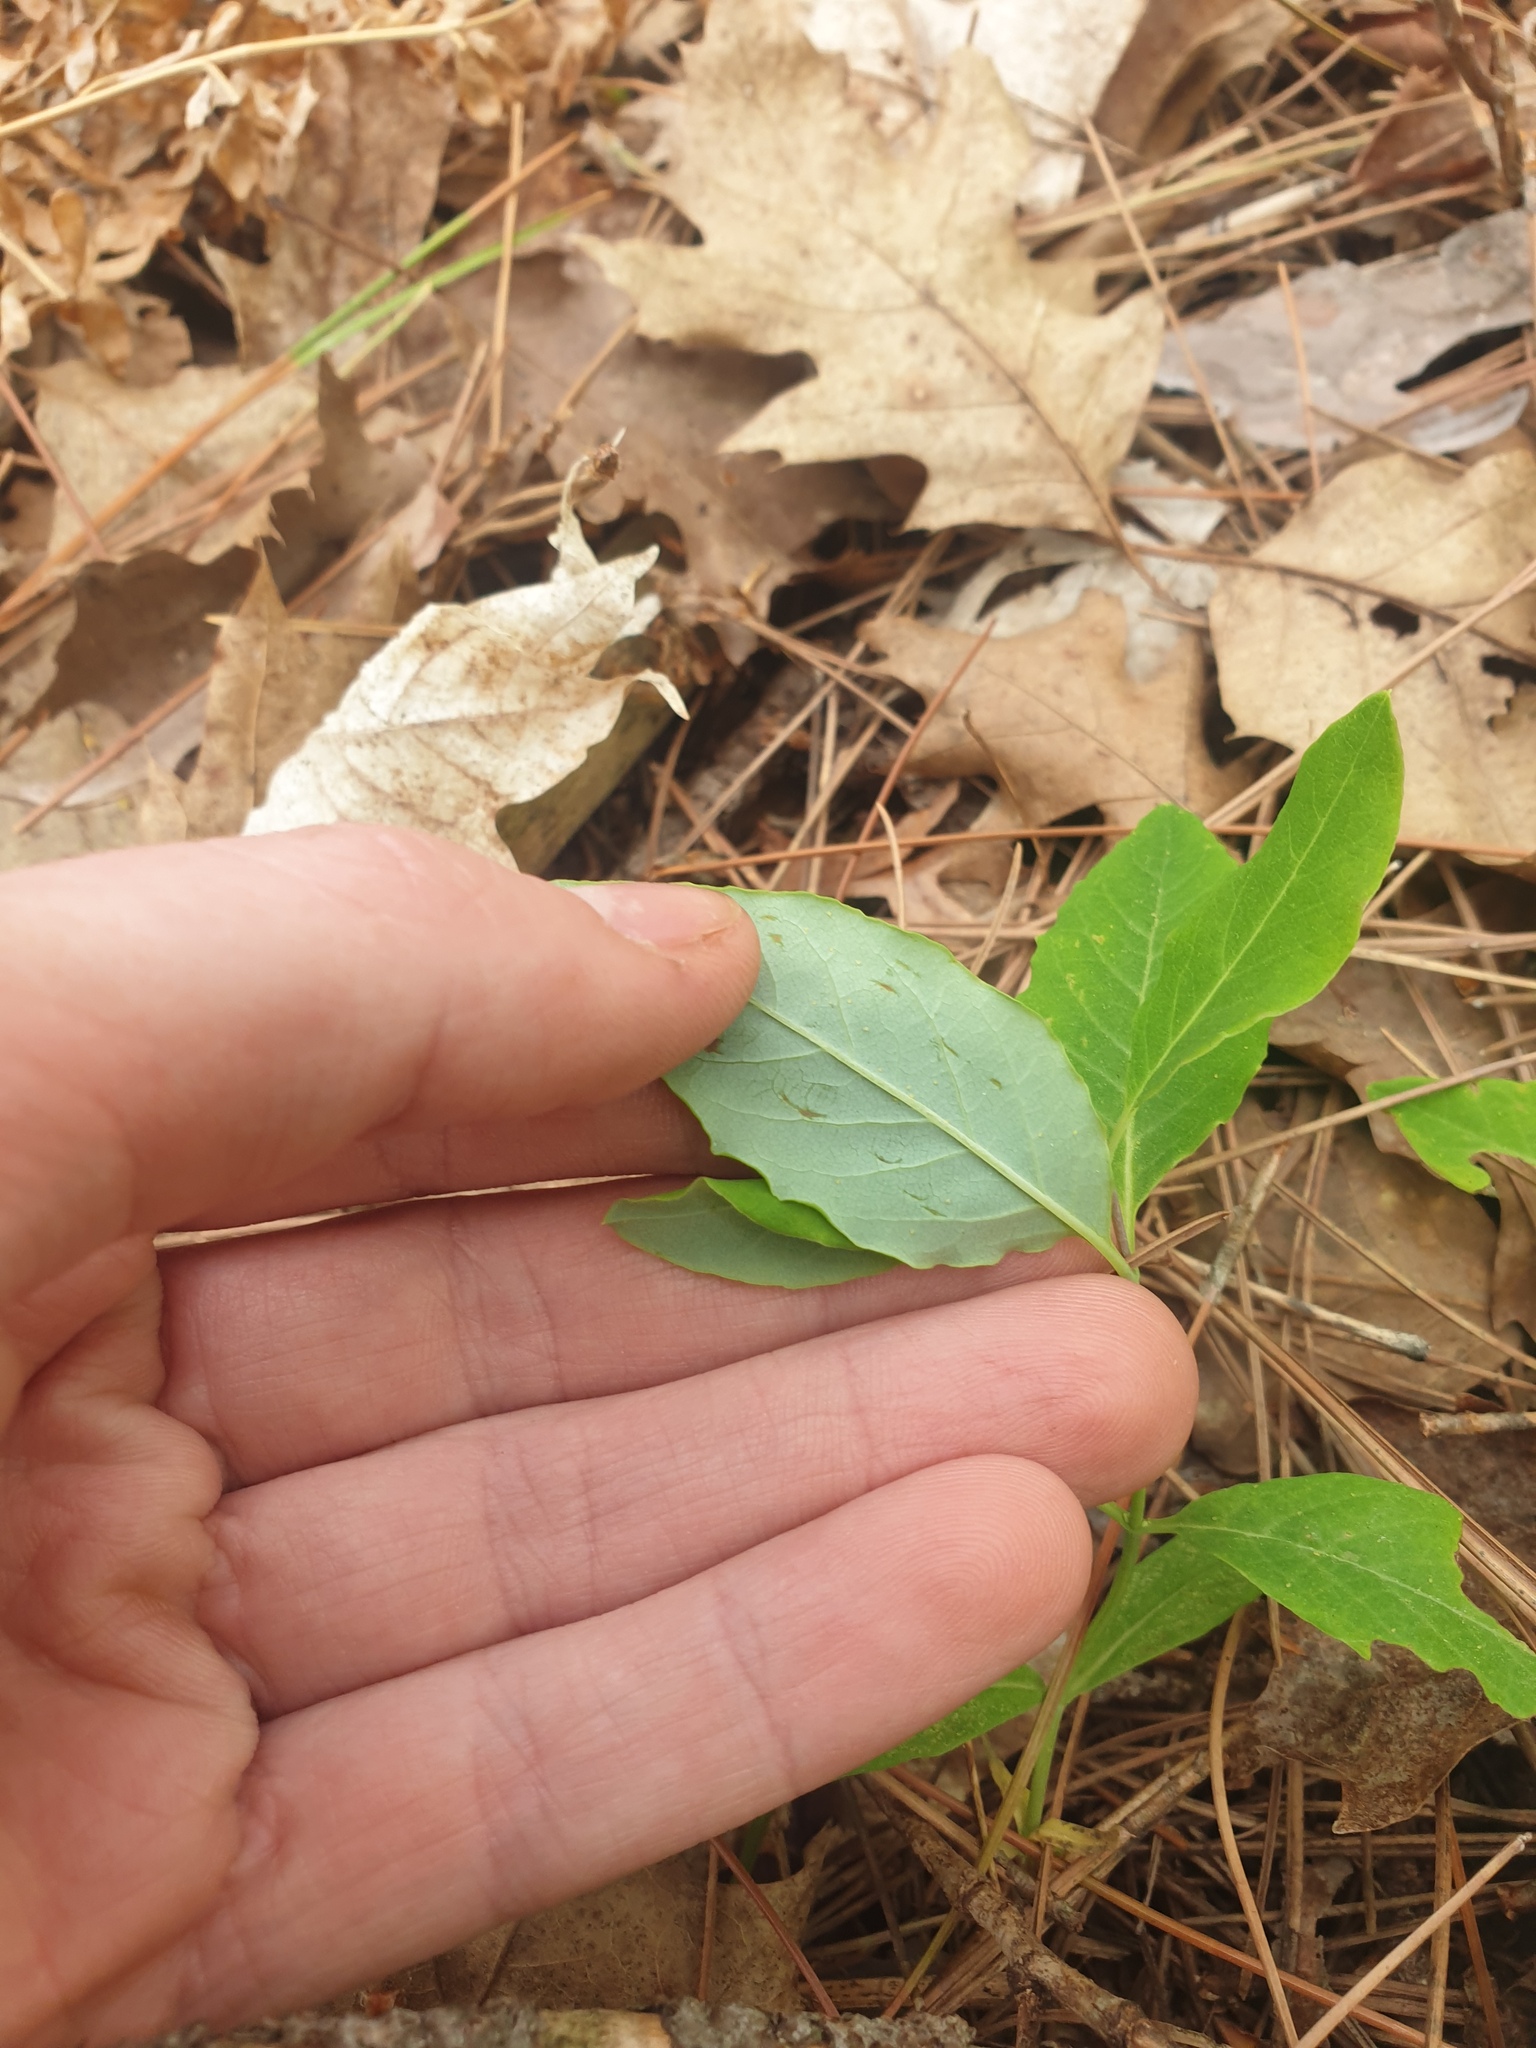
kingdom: Plantae
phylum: Tracheophyta
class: Magnoliopsida
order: Dipsacales
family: Caprifoliaceae
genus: Lonicera
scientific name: Lonicera dioica
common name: Limber honeysuckle
